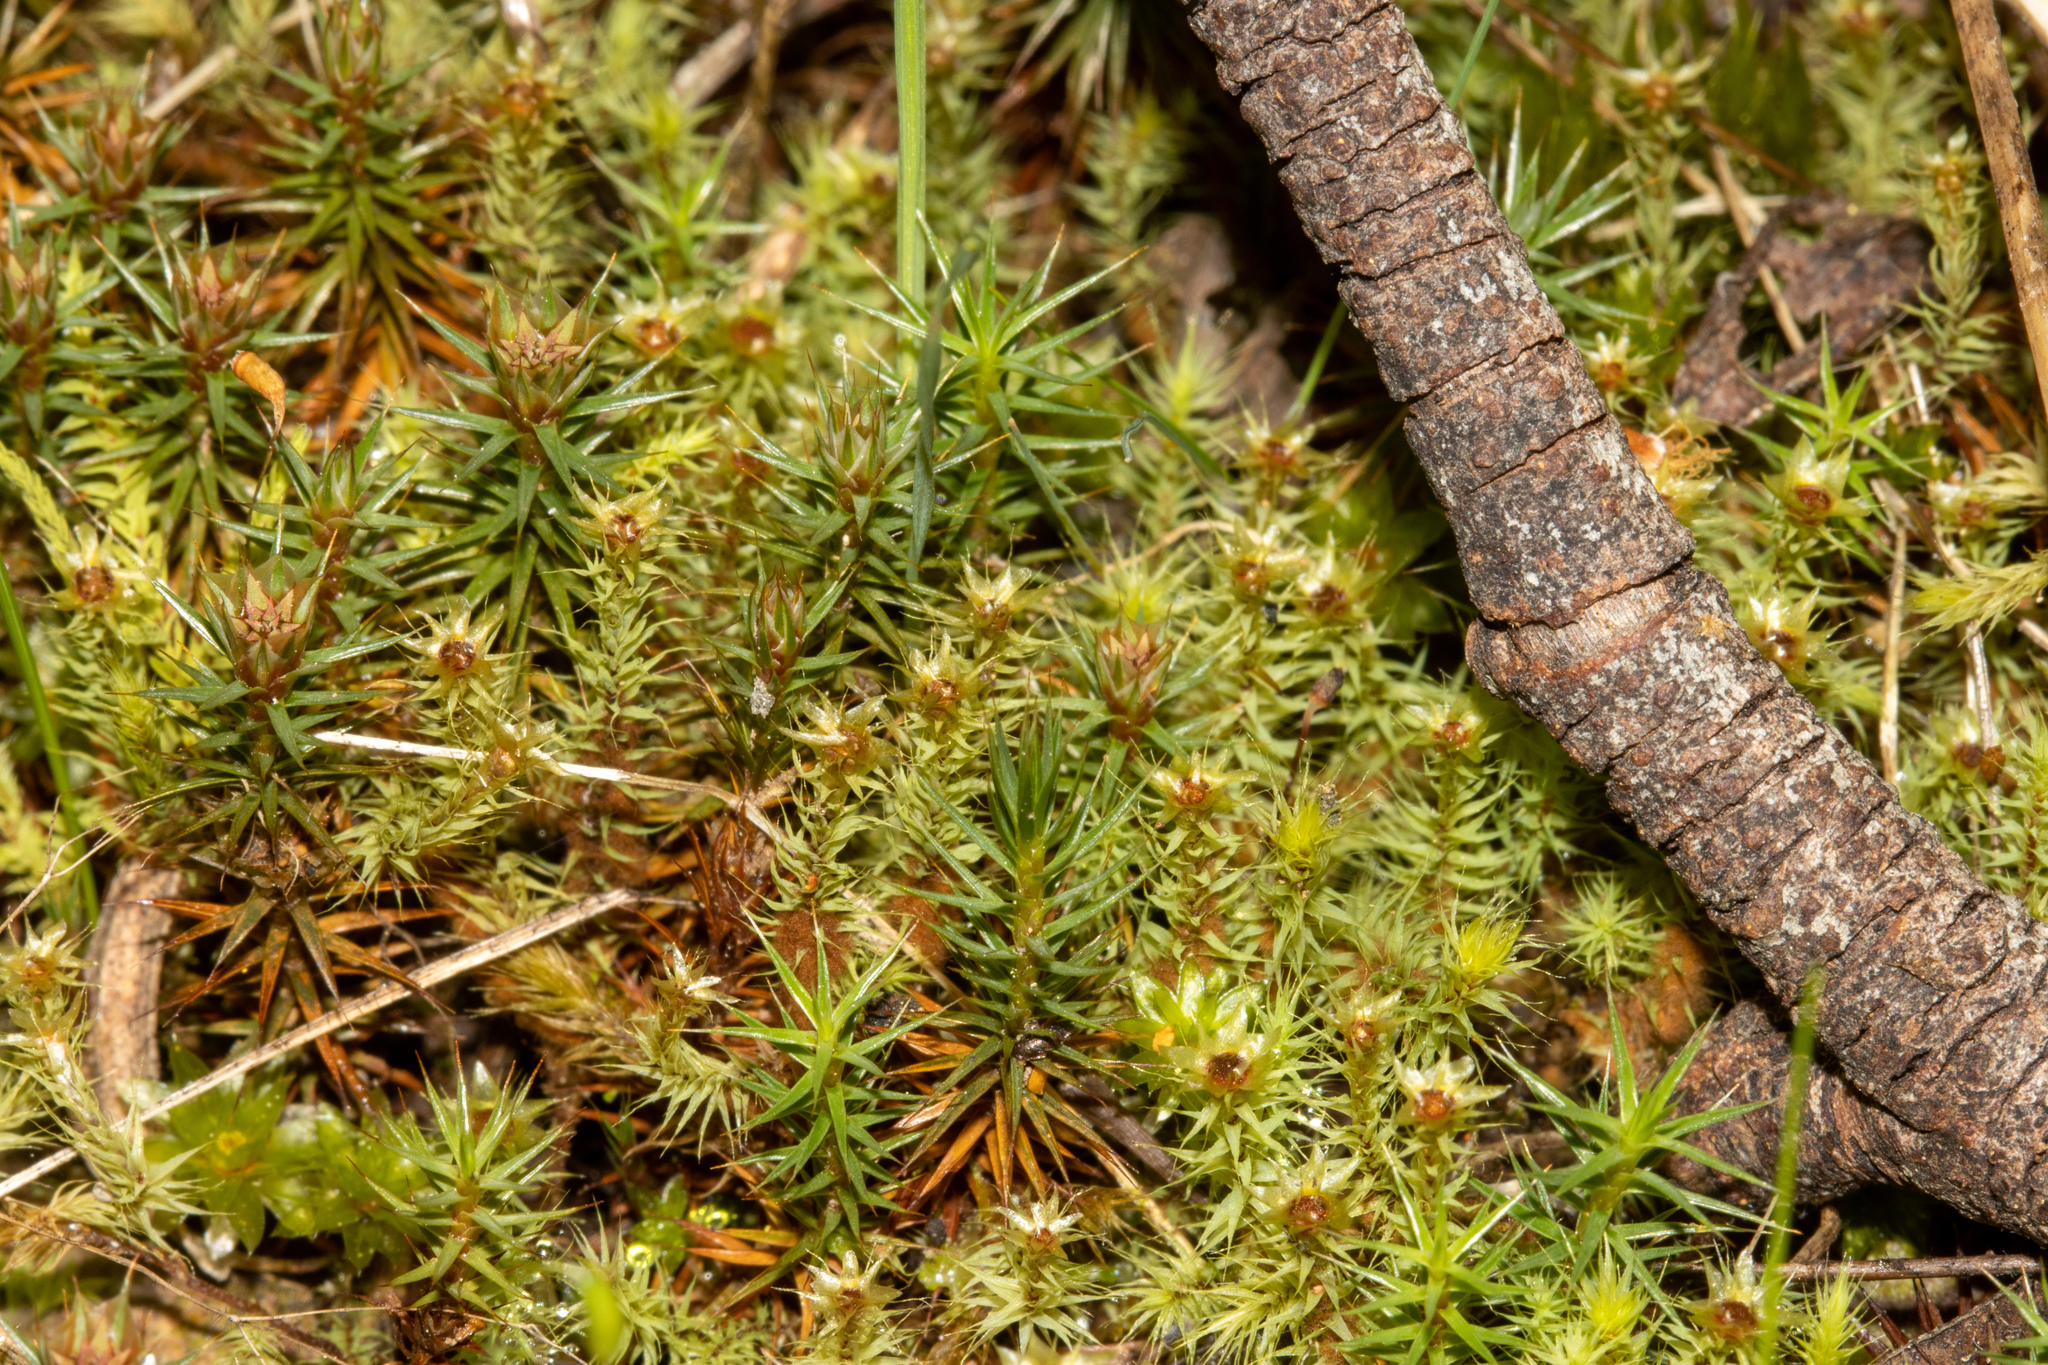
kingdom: Plantae
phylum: Bryophyta
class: Bryopsida
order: Bartramiales
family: Bartramiaceae
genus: Breutelia
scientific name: Breutelia affinis
